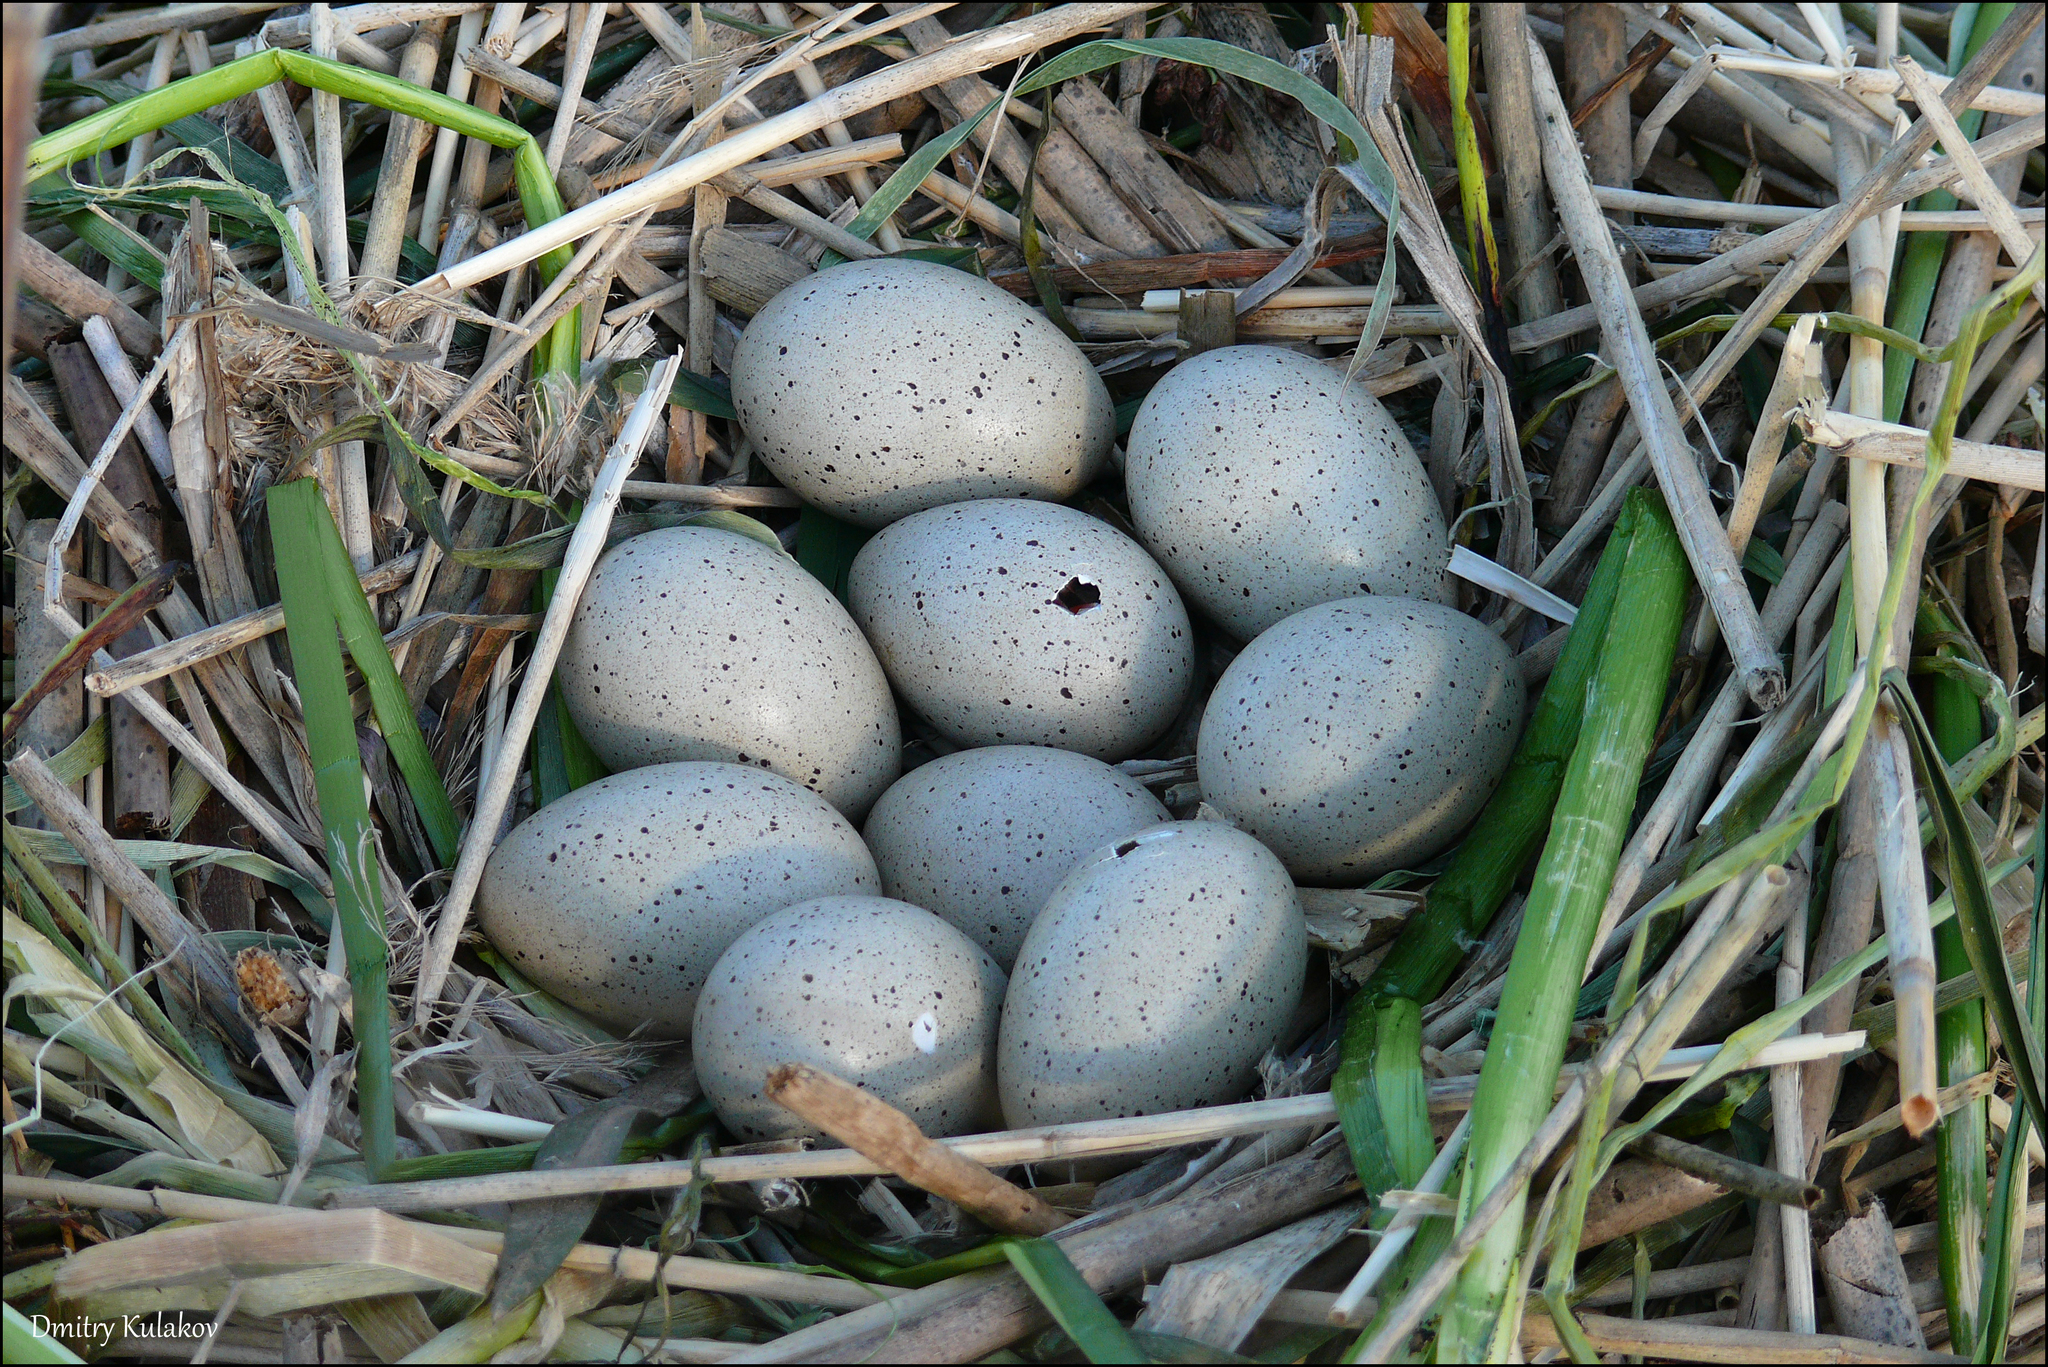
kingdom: Animalia
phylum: Chordata
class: Aves
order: Gruiformes
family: Rallidae
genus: Fulica
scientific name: Fulica atra
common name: Eurasian coot
